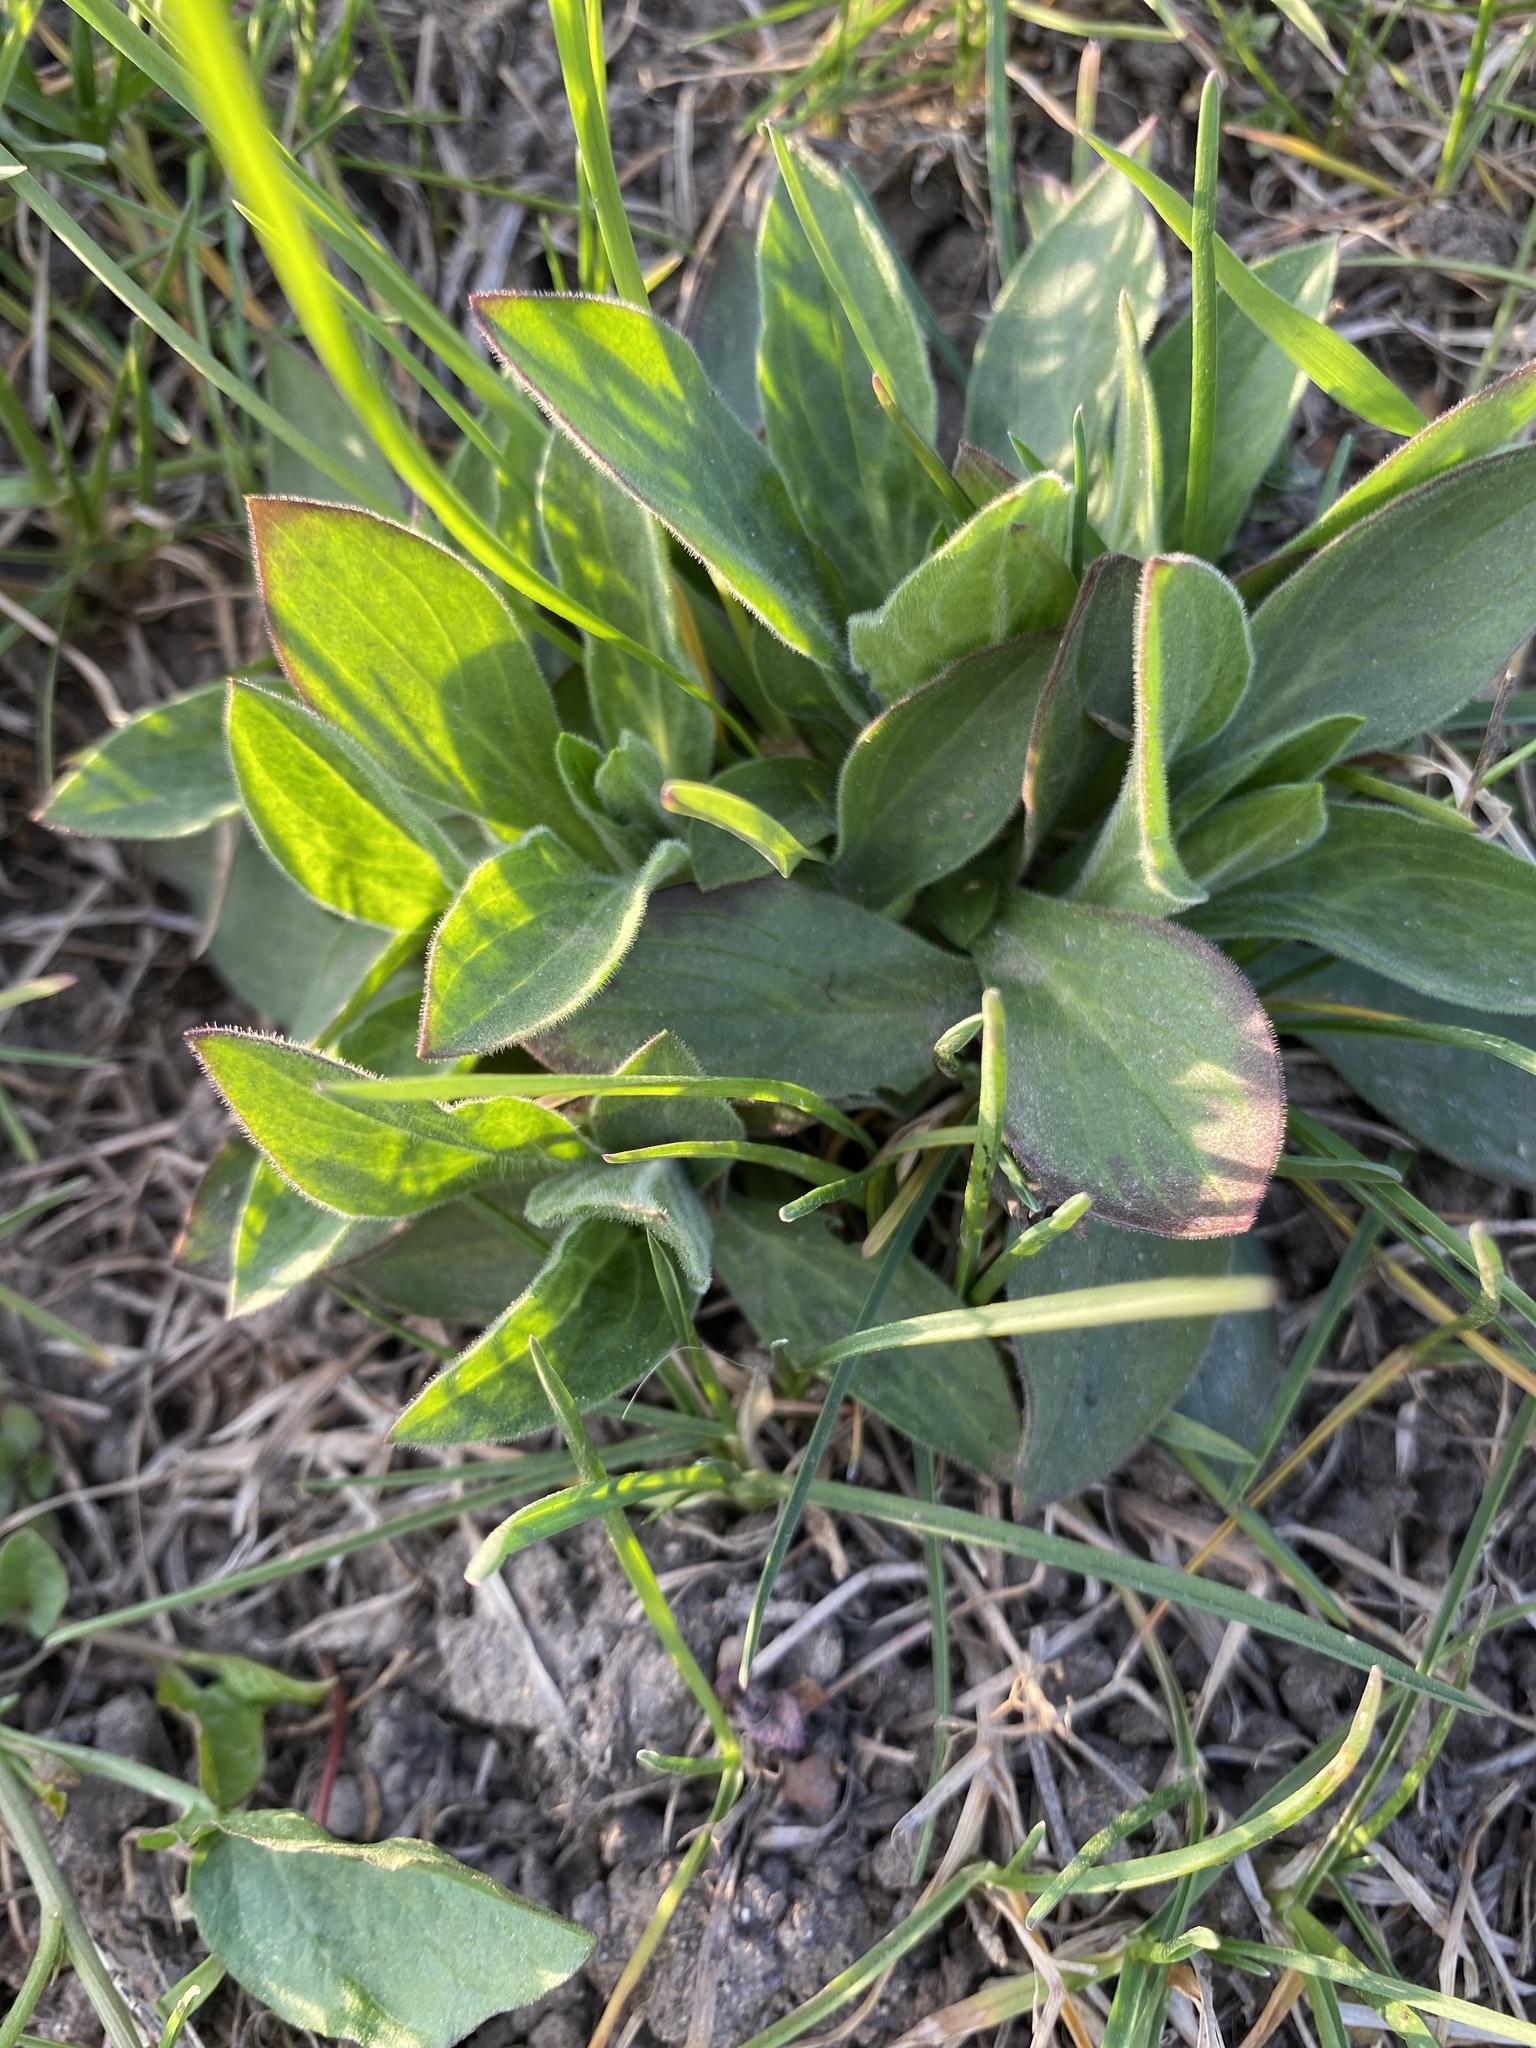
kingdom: Plantae
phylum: Tracheophyta
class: Magnoliopsida
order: Caryophyllales
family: Caryophyllaceae
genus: Silene
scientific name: Silene latifolia
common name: White campion
